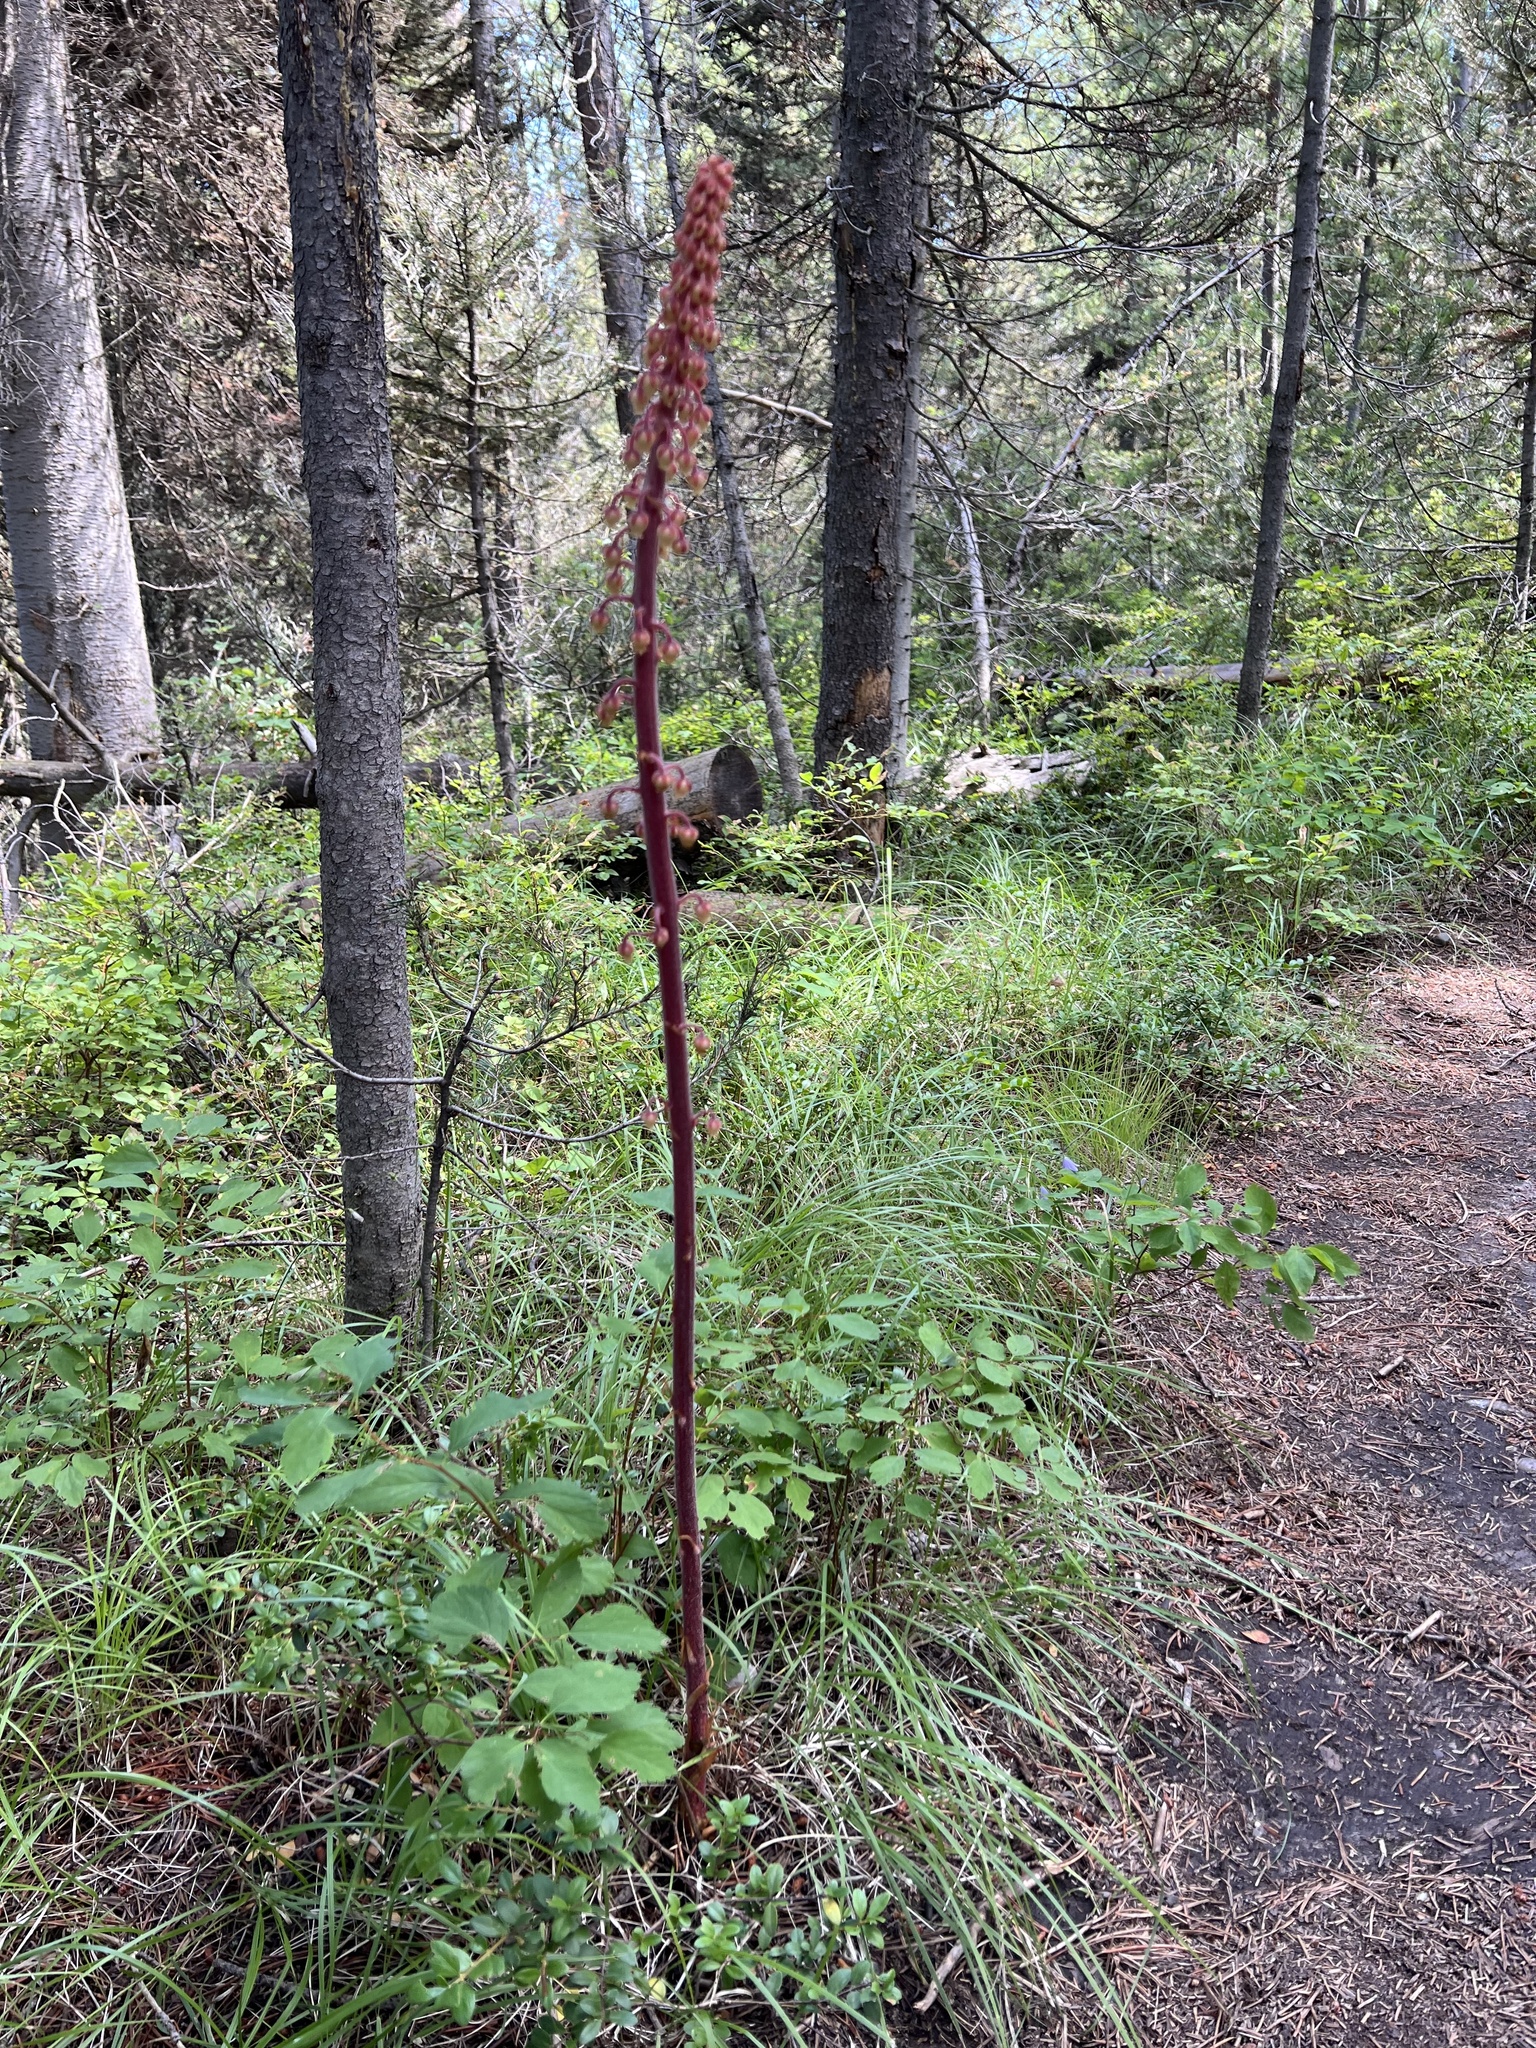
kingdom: Plantae
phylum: Tracheophyta
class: Magnoliopsida
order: Ericales
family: Ericaceae
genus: Pterospora
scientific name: Pterospora andromedea
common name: Giant bird's-nest
